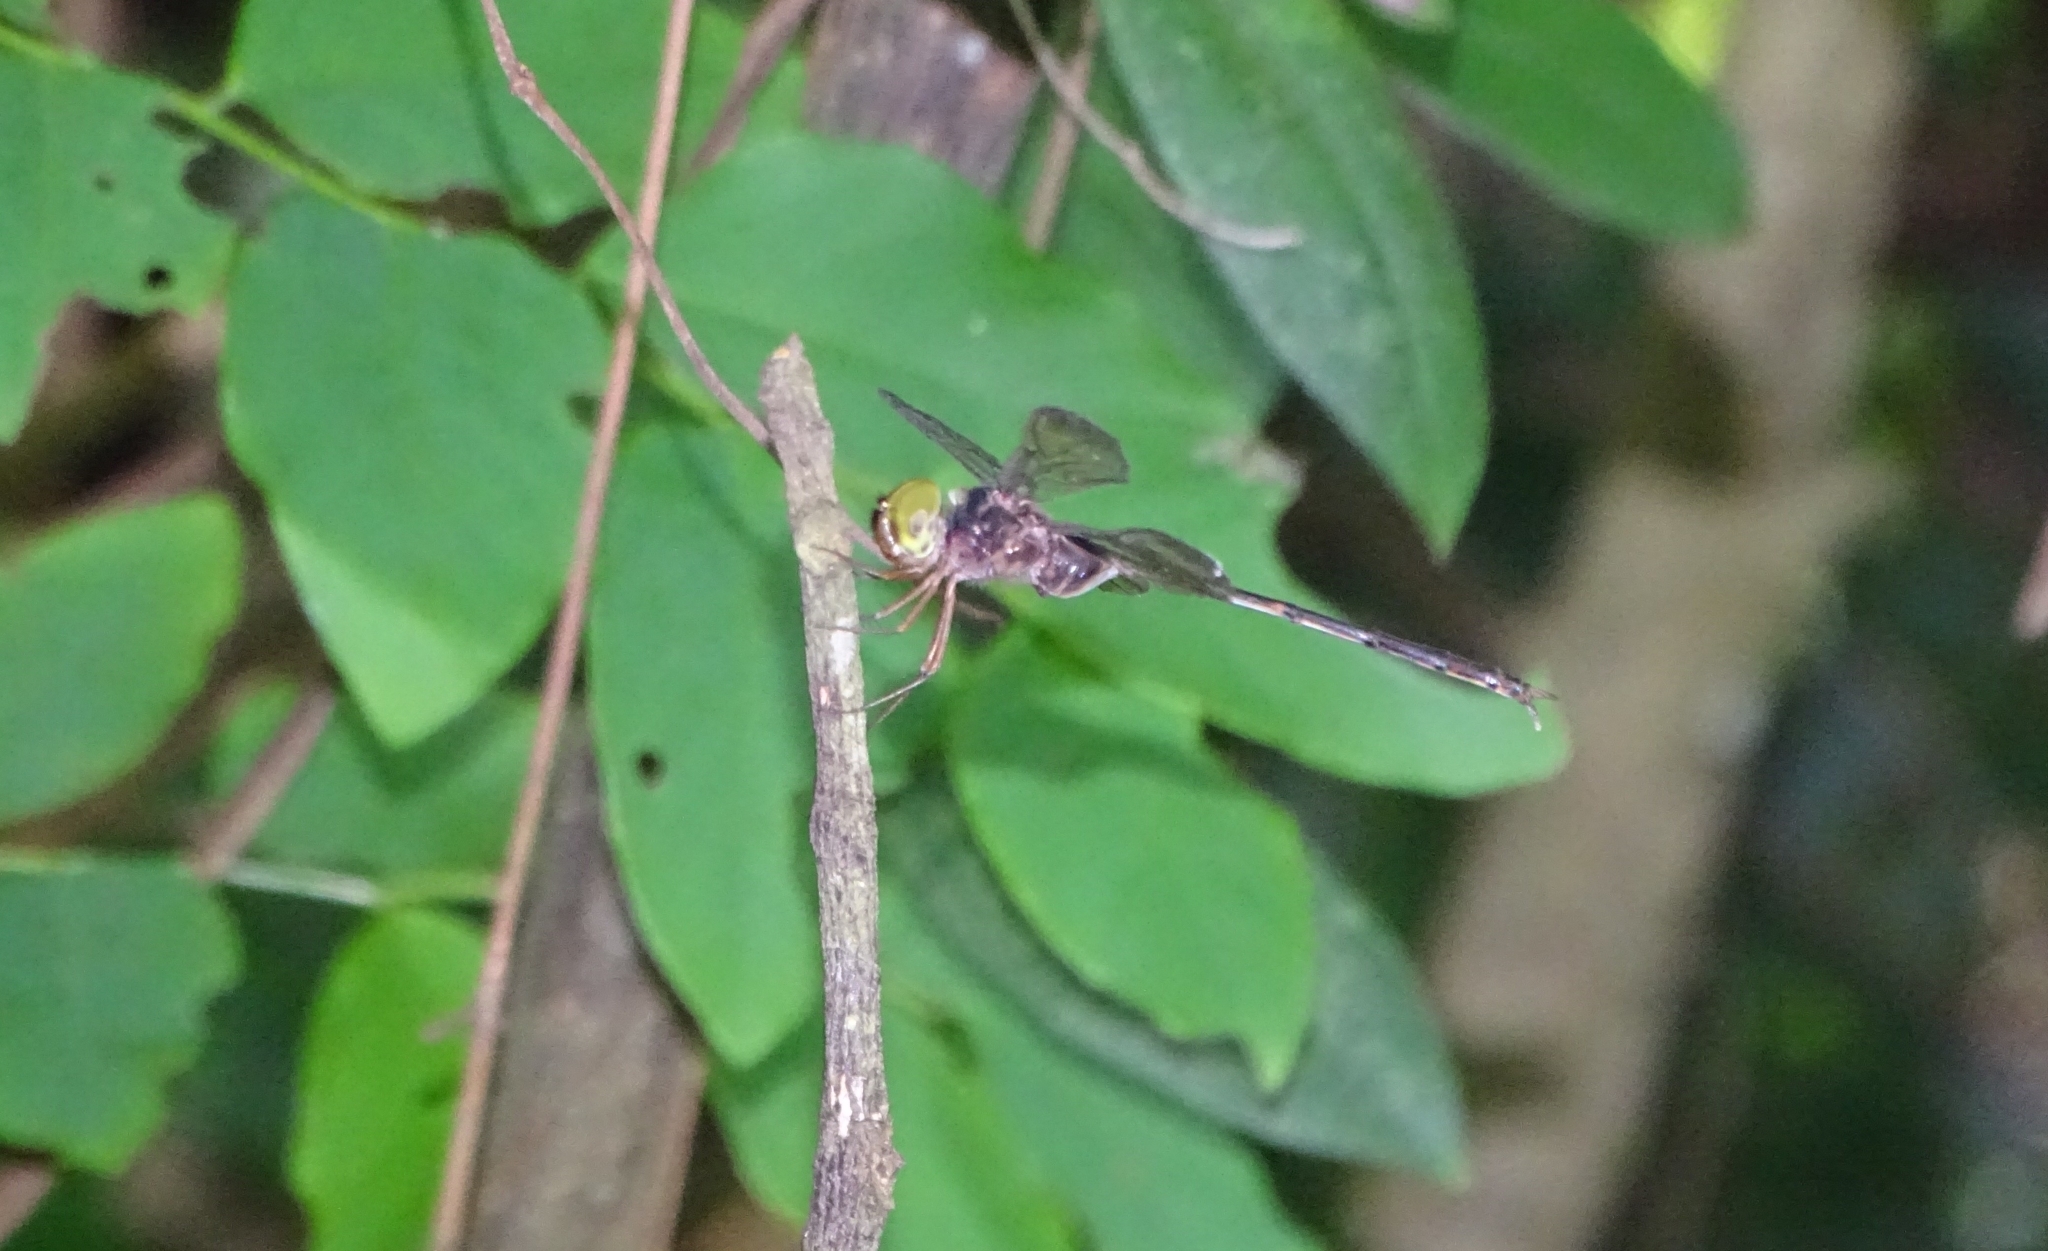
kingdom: Animalia
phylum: Arthropoda
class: Insecta
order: Odonata
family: Libellulidae
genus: Zyxomma
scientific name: Zyxomma petiolatum
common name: Dingy dusk-darter
